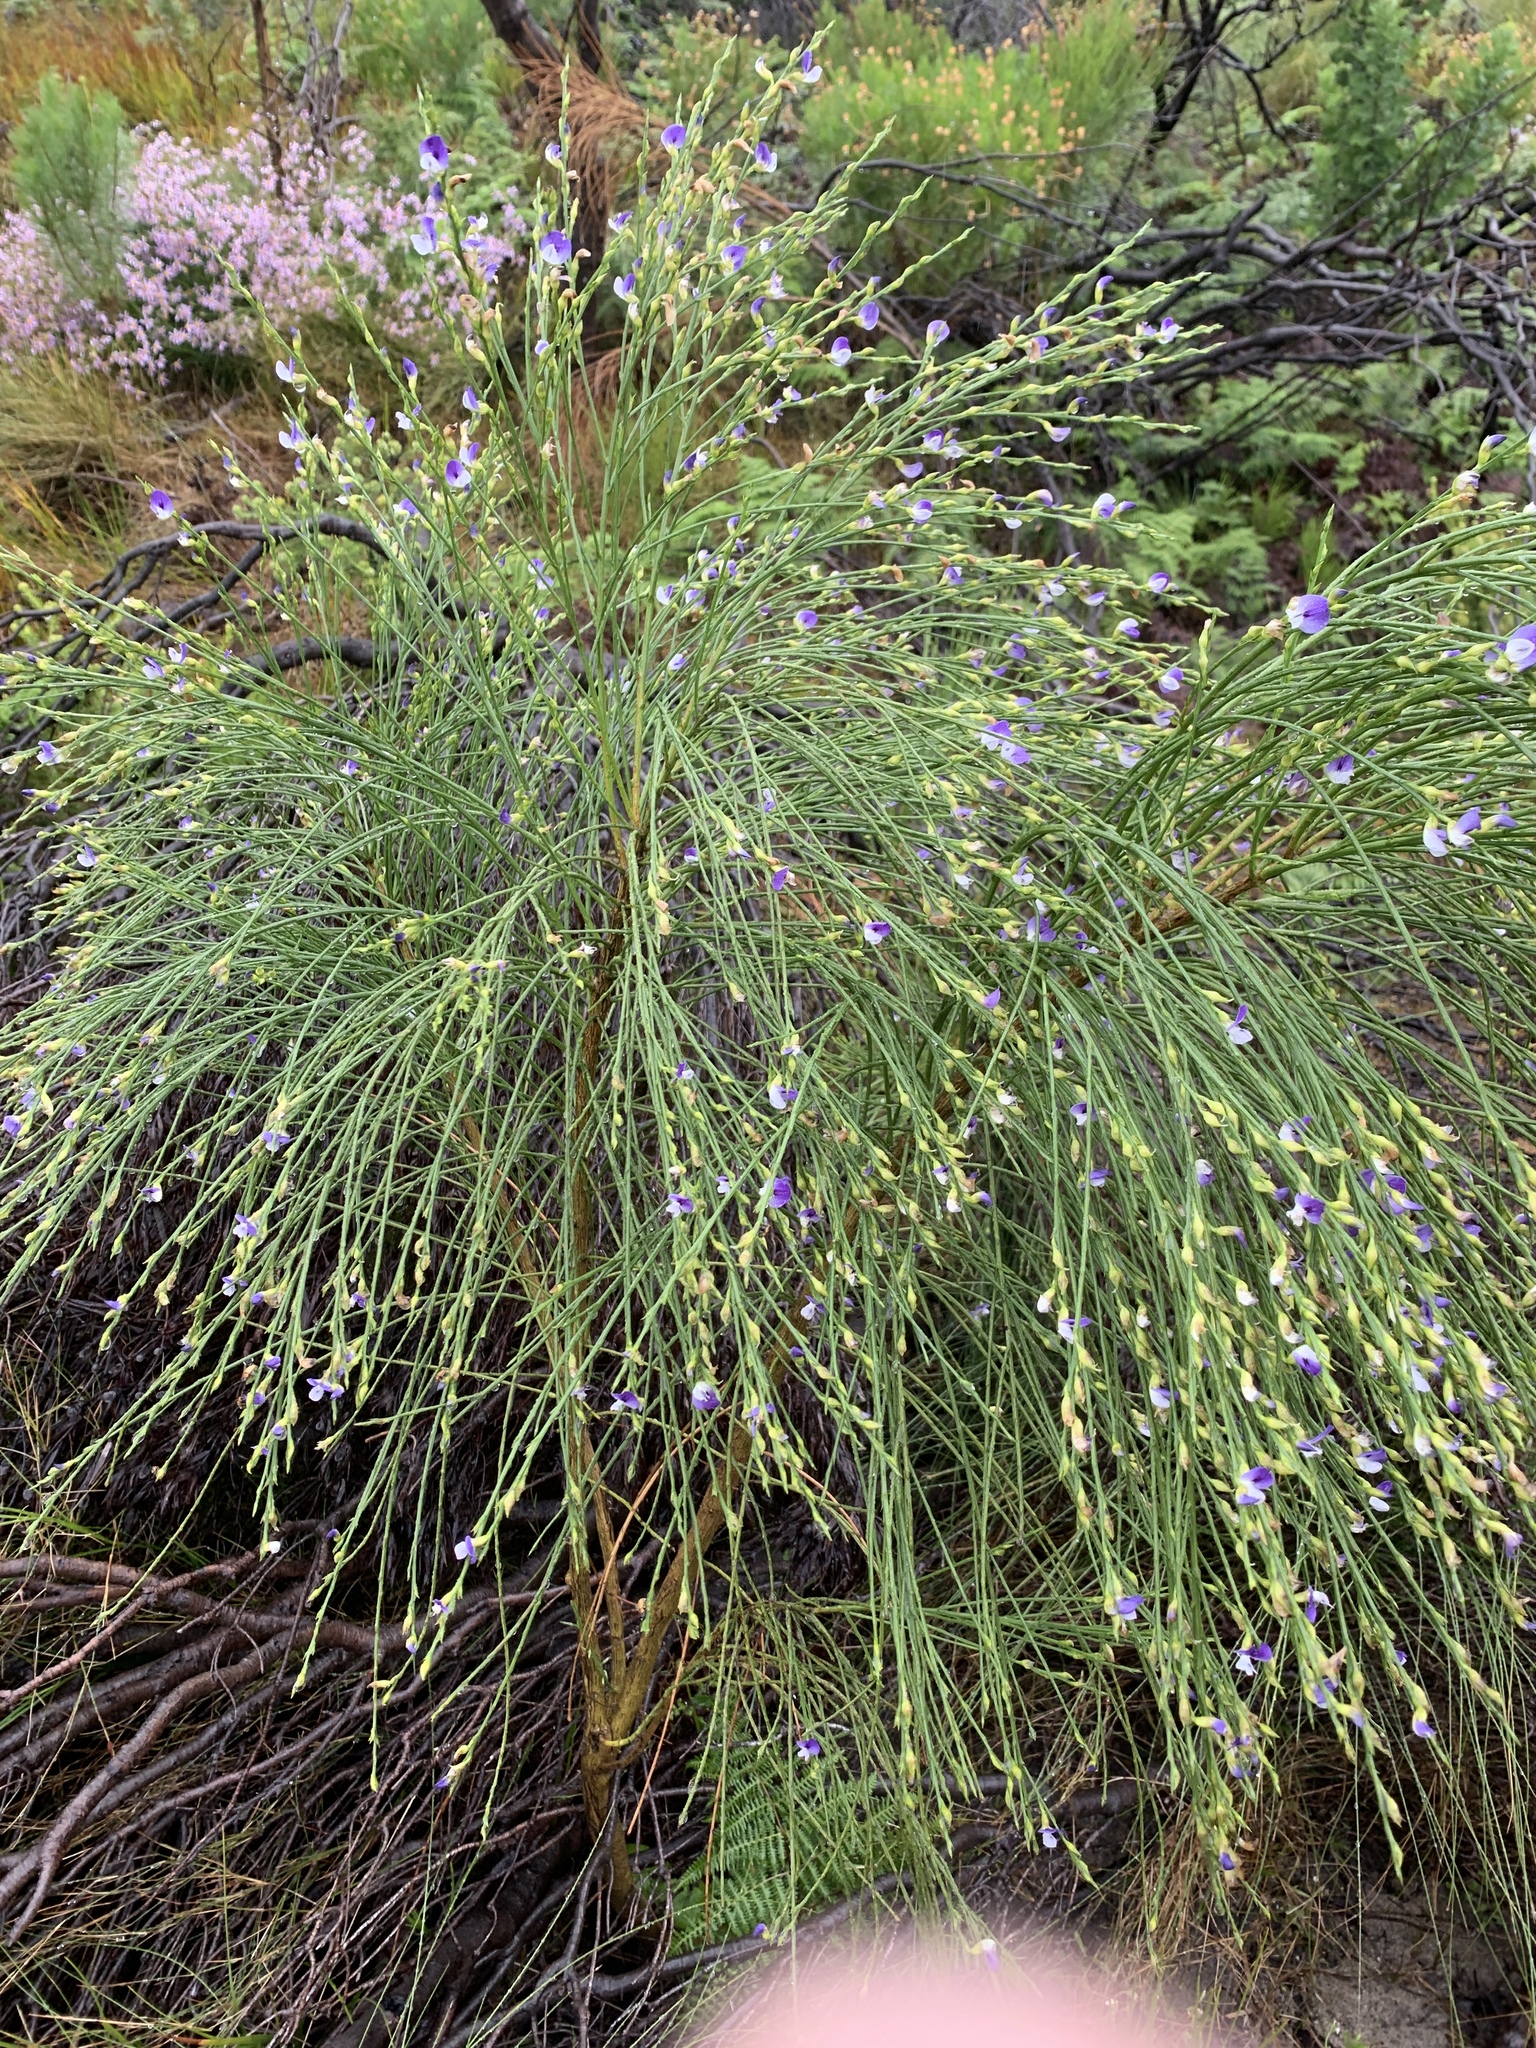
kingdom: Plantae
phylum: Tracheophyta
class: Magnoliopsida
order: Fabales
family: Fabaceae
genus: Psoralea
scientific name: Psoralea aphylla
